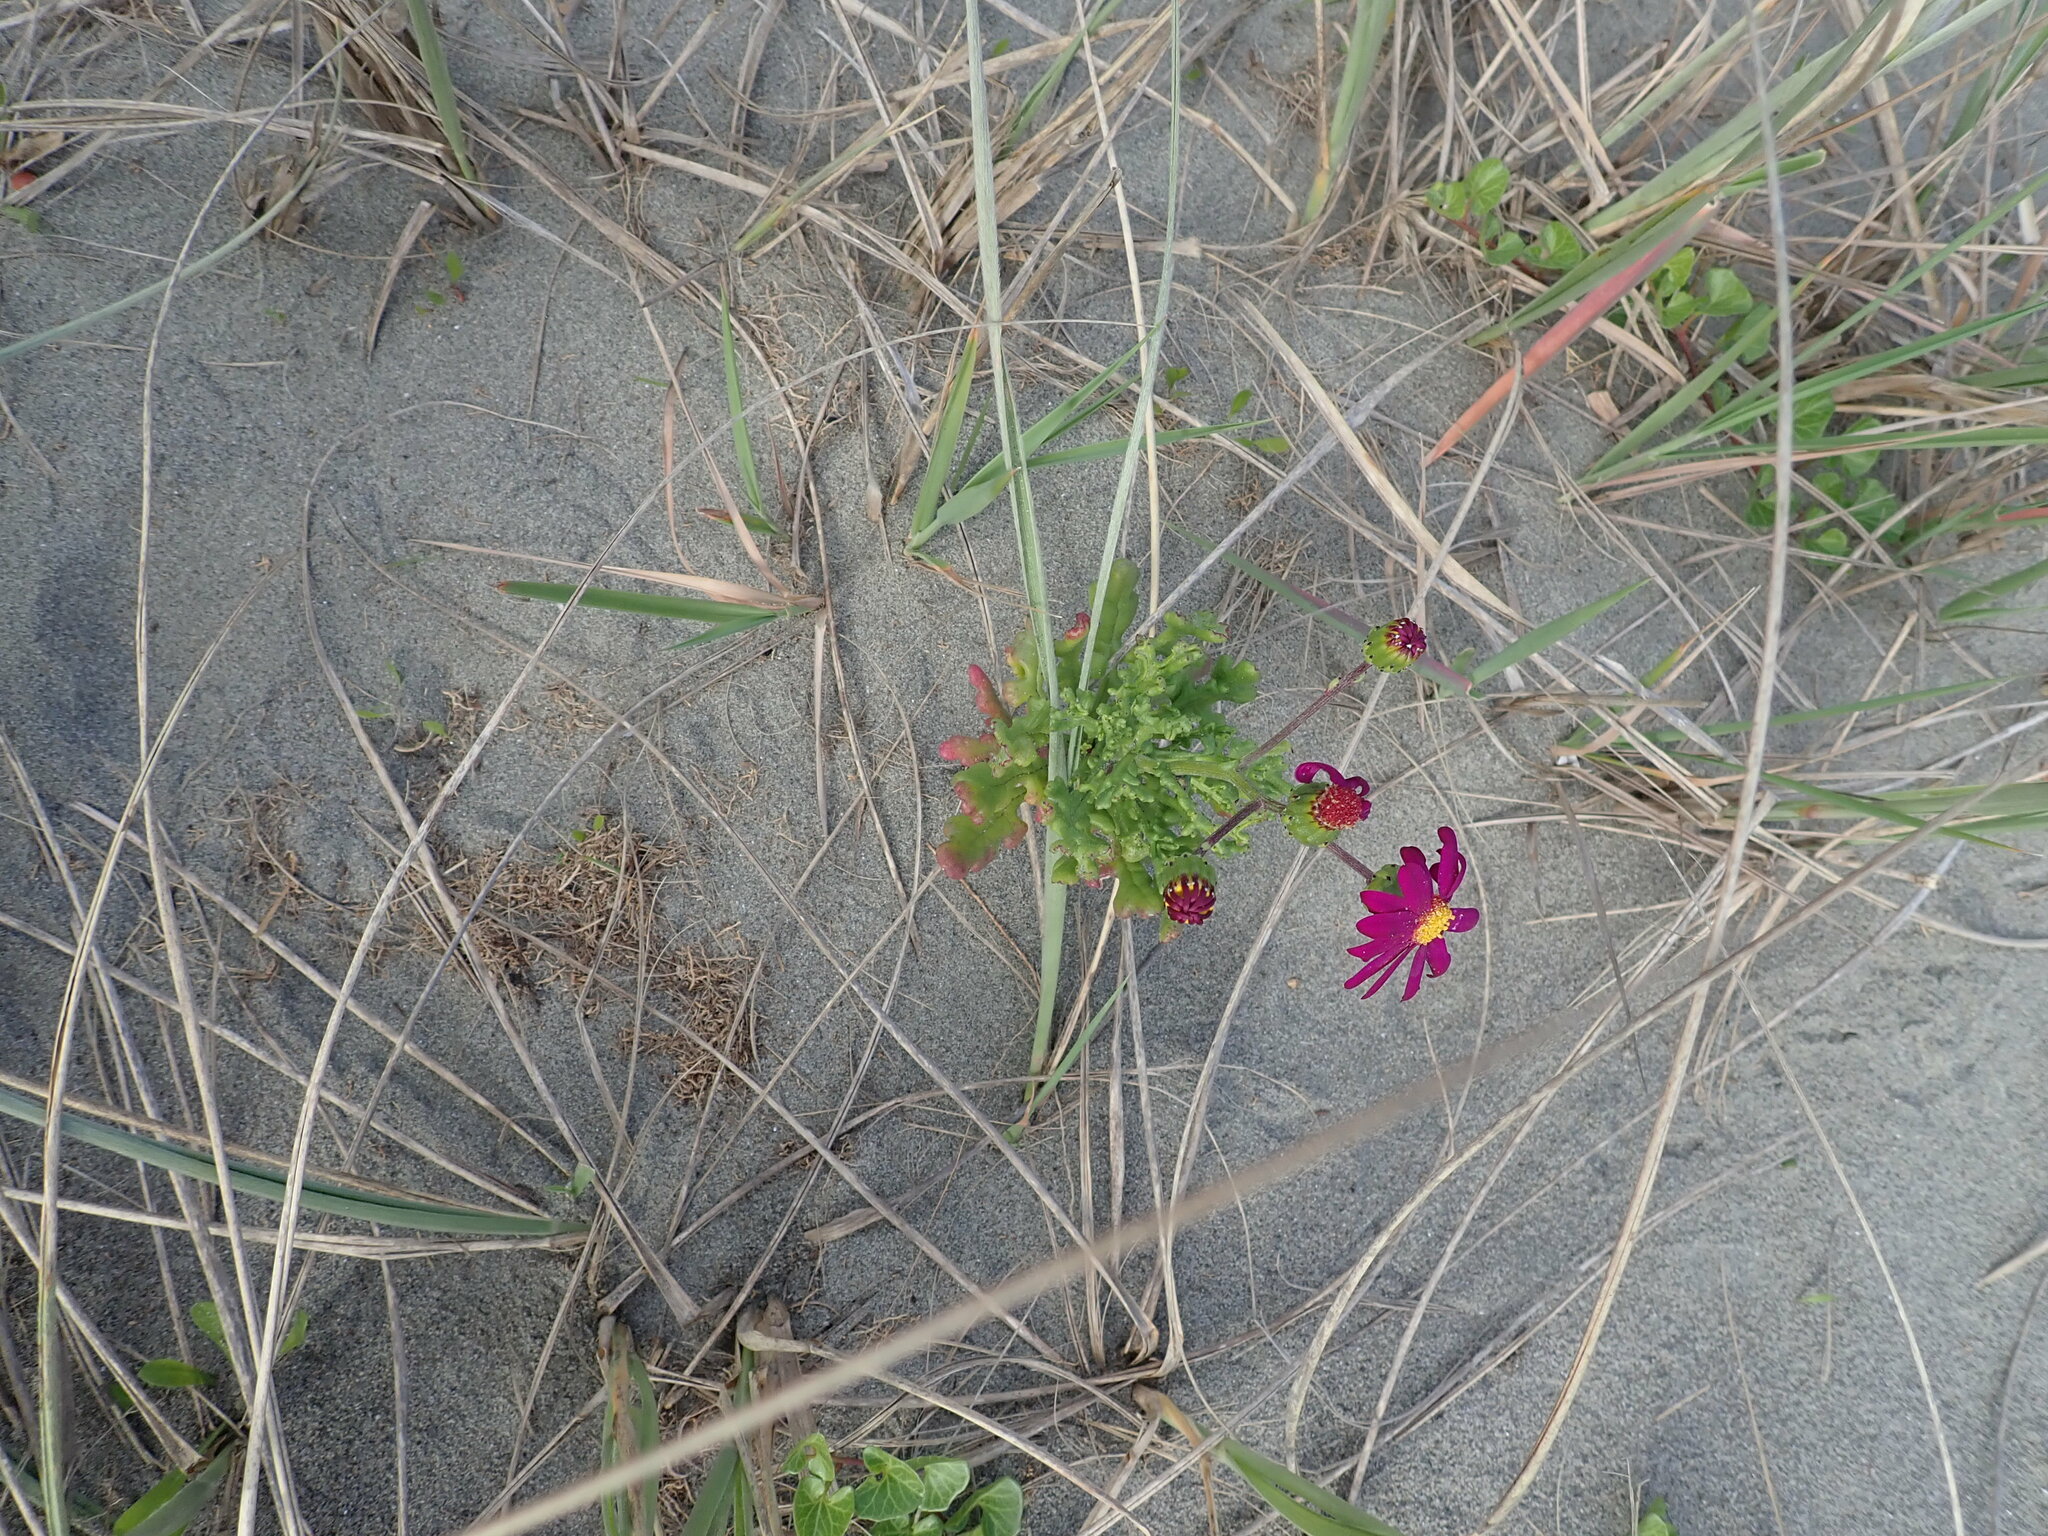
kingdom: Plantae
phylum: Tracheophyta
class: Magnoliopsida
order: Asterales
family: Asteraceae
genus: Senecio
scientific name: Senecio elegans
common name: Purple groundsel
